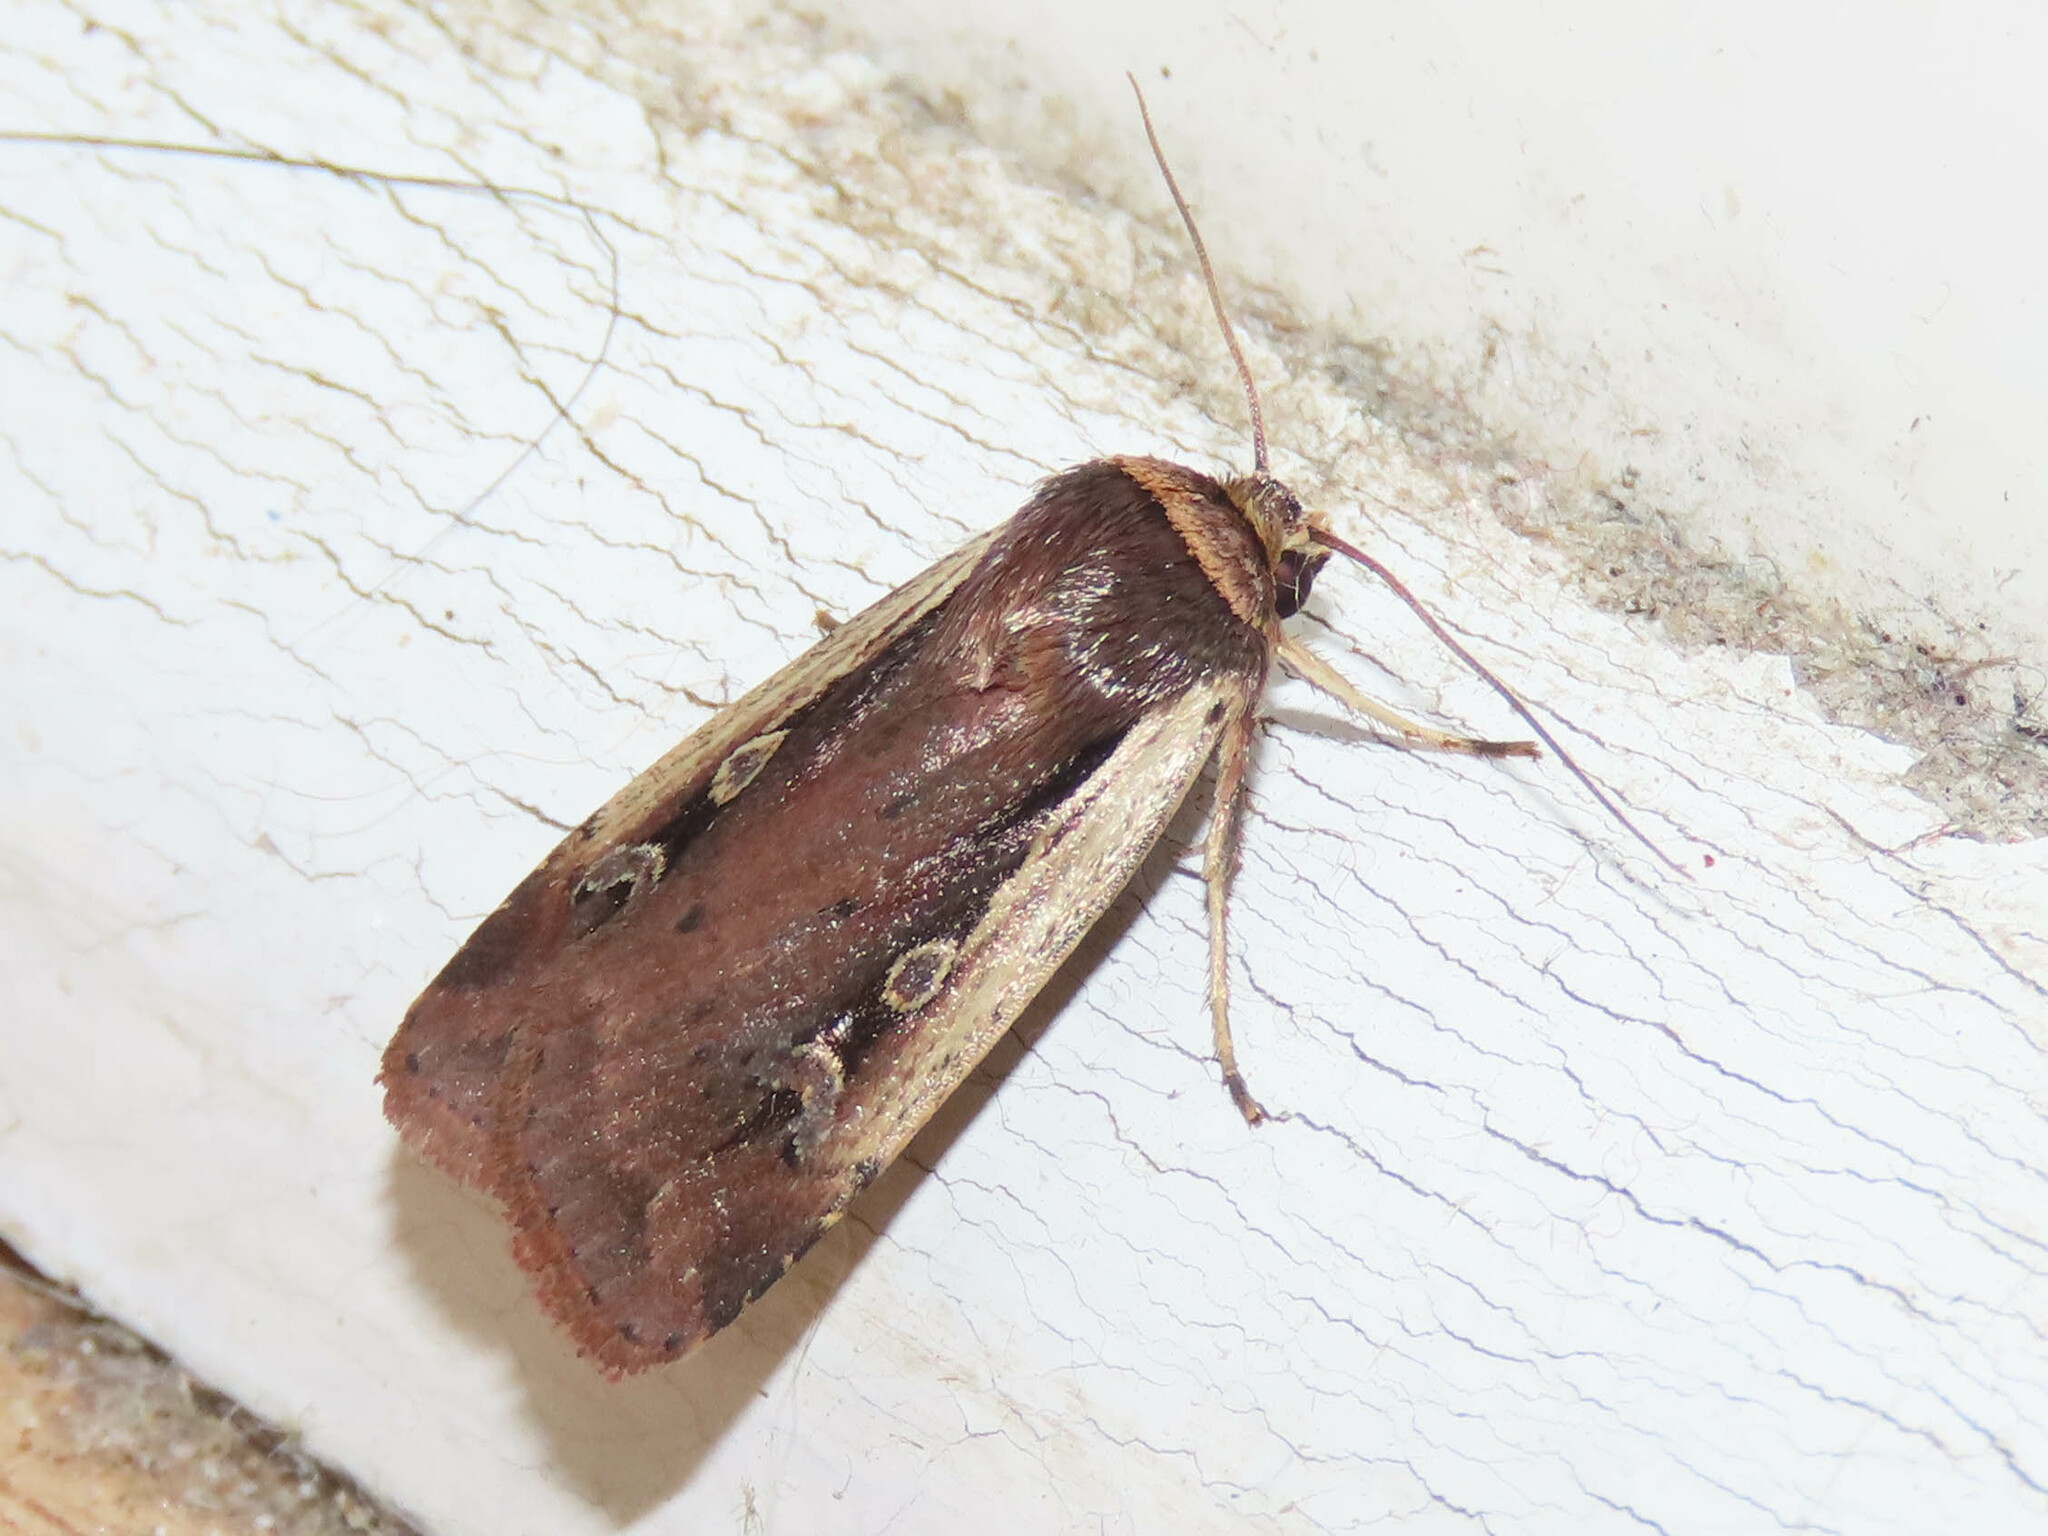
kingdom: Animalia
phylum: Arthropoda
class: Insecta
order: Lepidoptera
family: Noctuidae
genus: Ochropleura
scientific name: Ochropleura implecta
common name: Flame-shouldered dart
